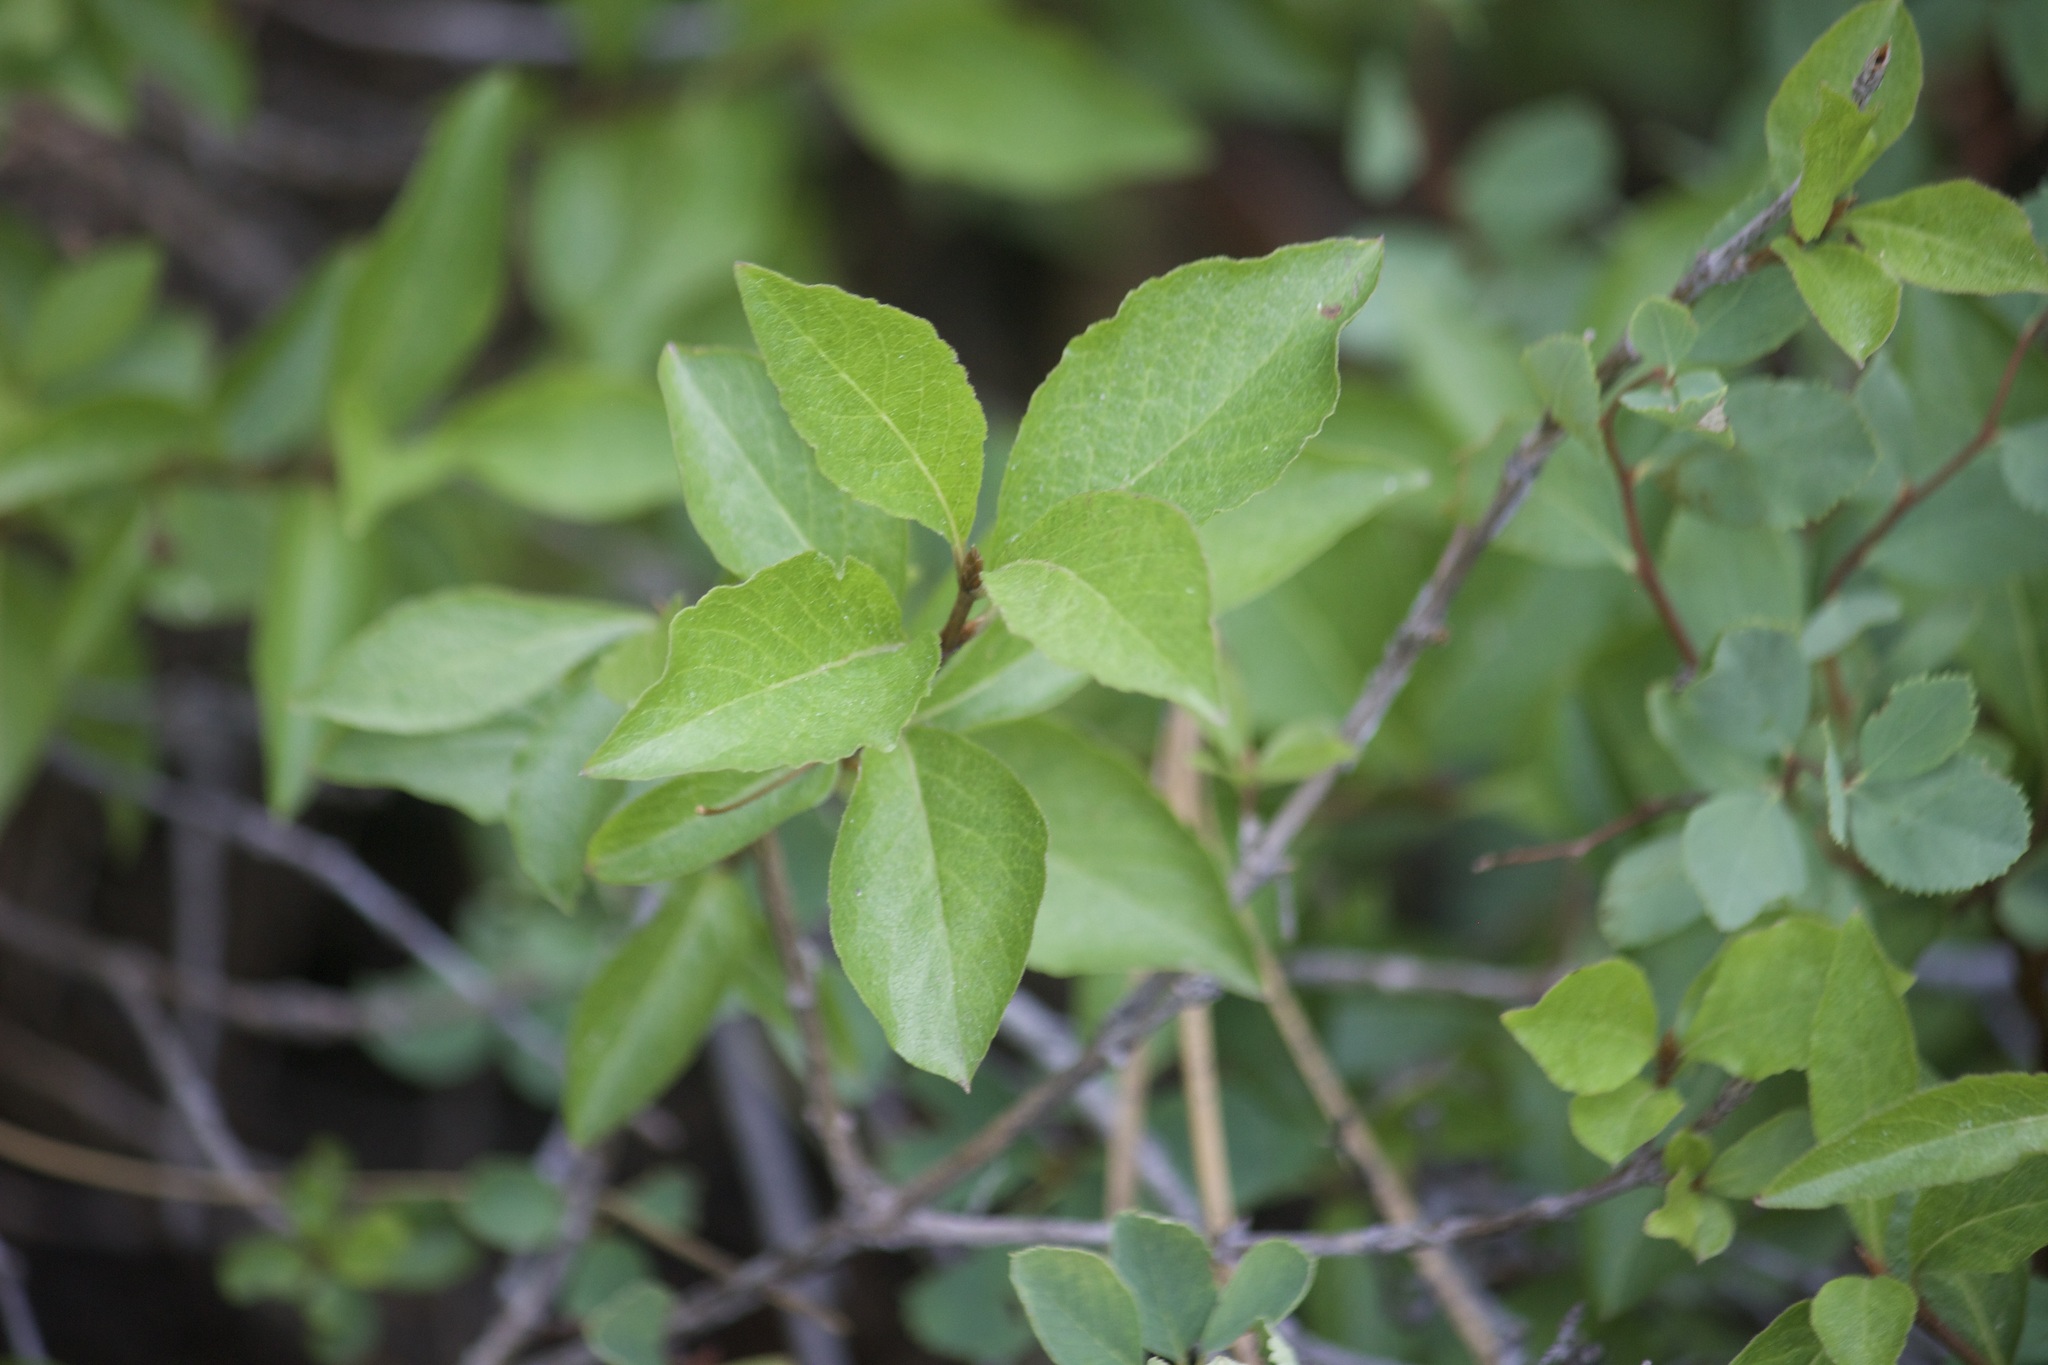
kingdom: Plantae
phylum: Tracheophyta
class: Magnoliopsida
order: Dipsacales
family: Caprifoliaceae
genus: Lonicera
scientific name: Lonicera conjugialis
